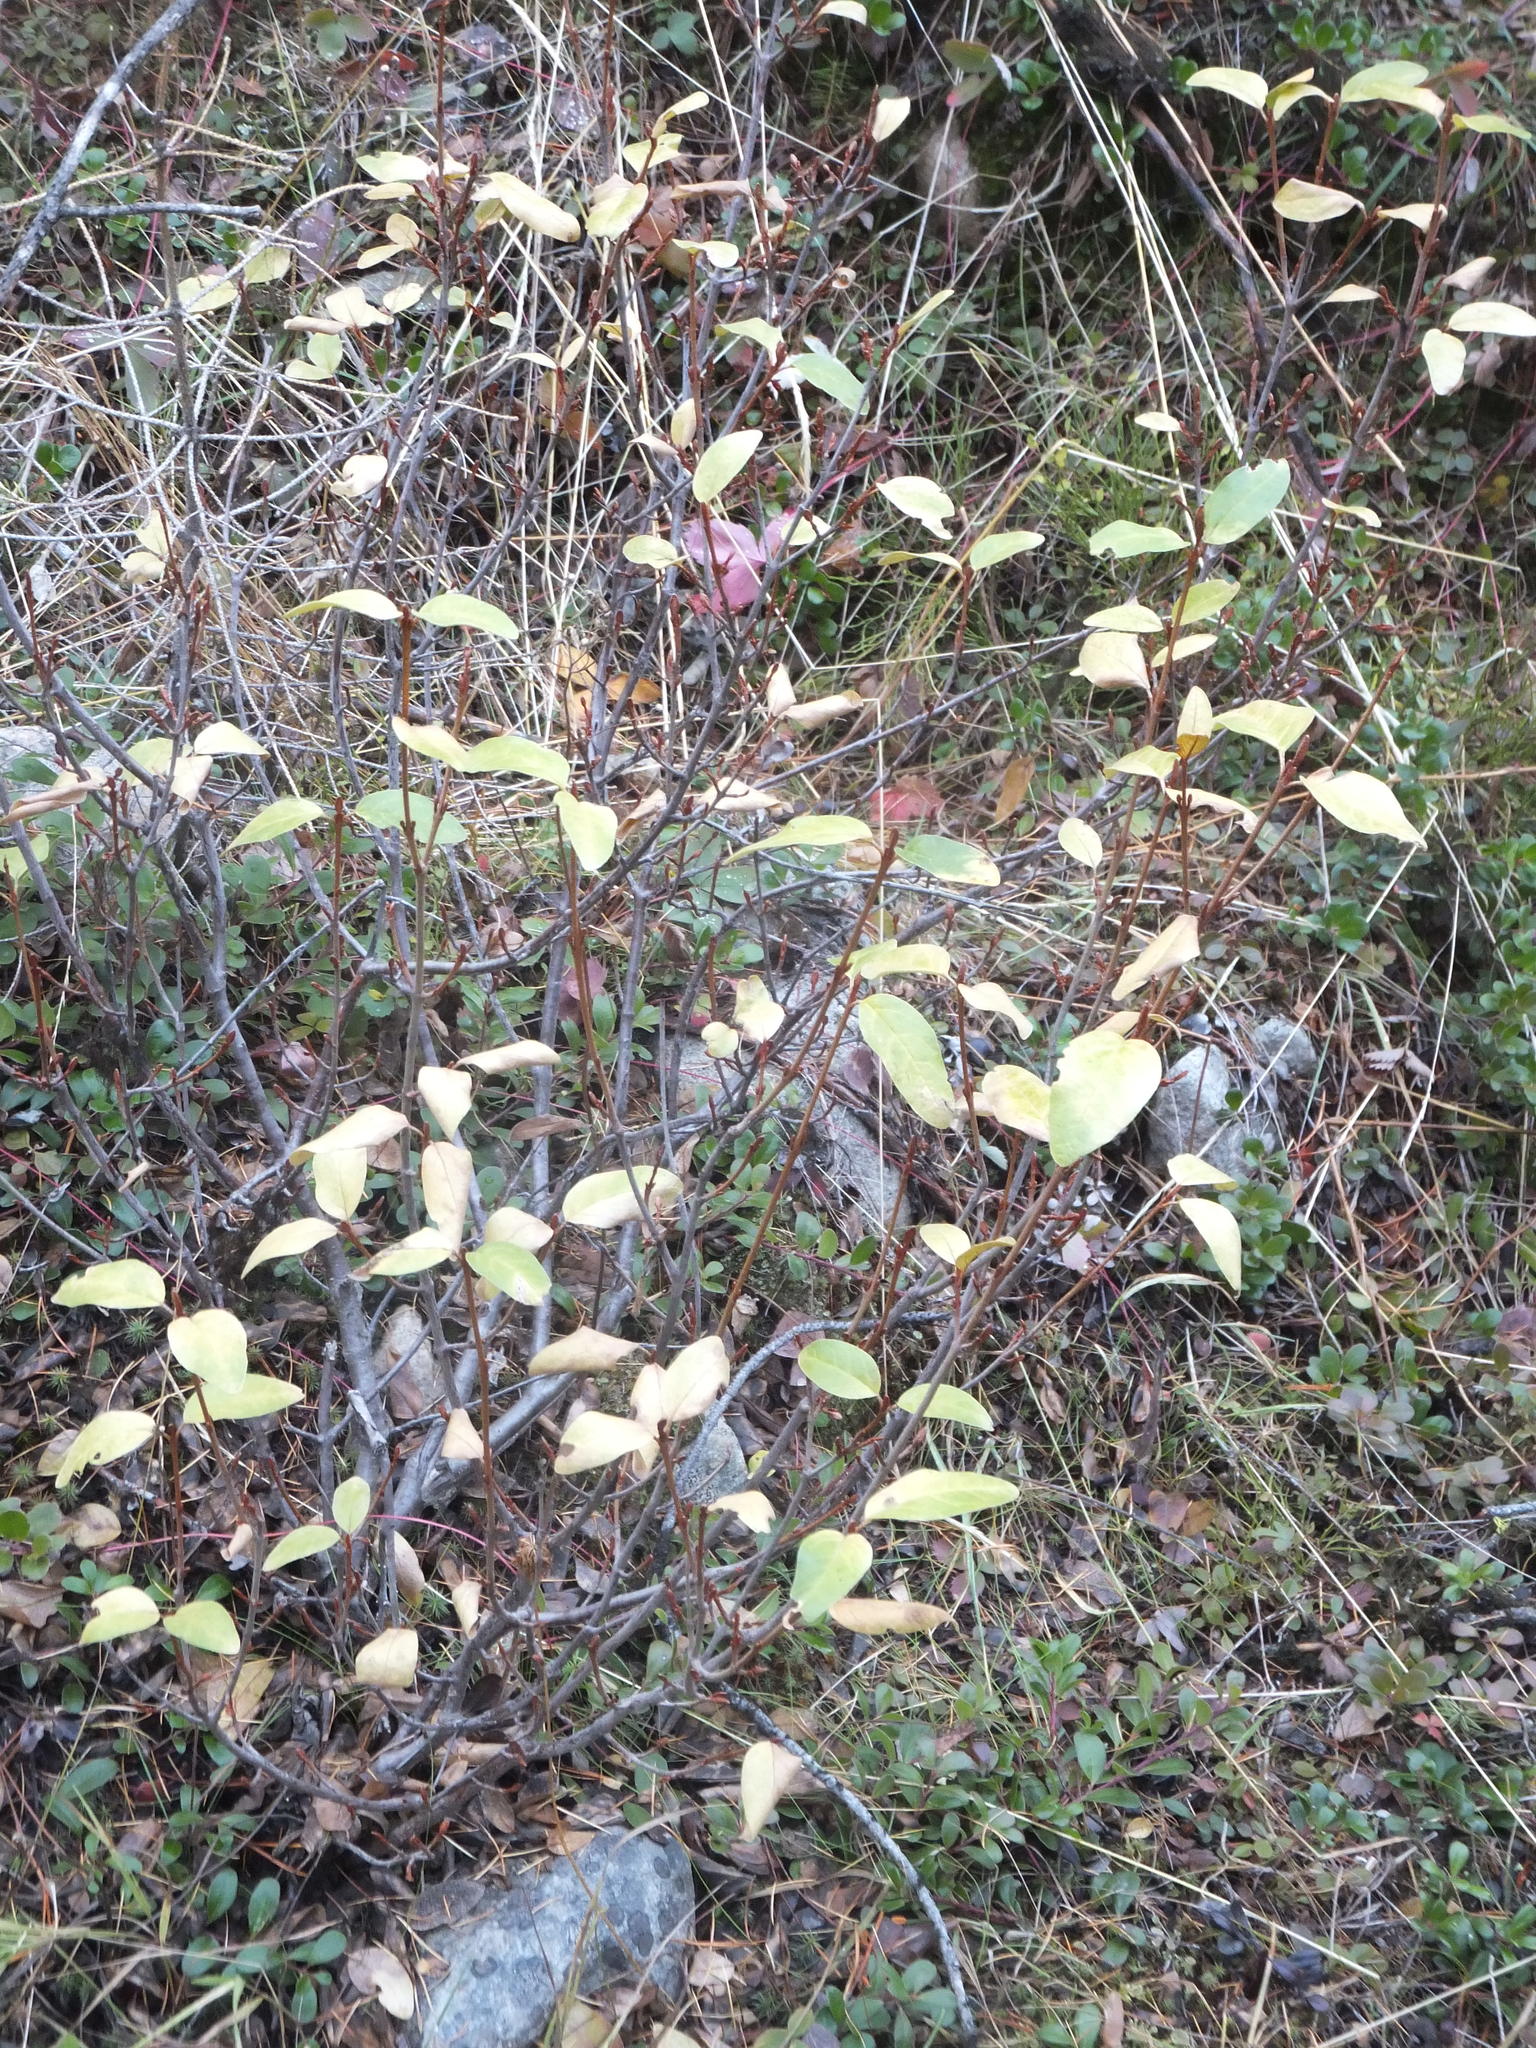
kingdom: Plantae
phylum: Tracheophyta
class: Magnoliopsida
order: Rosales
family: Elaeagnaceae
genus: Shepherdia
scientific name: Shepherdia canadensis
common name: Soapberry
